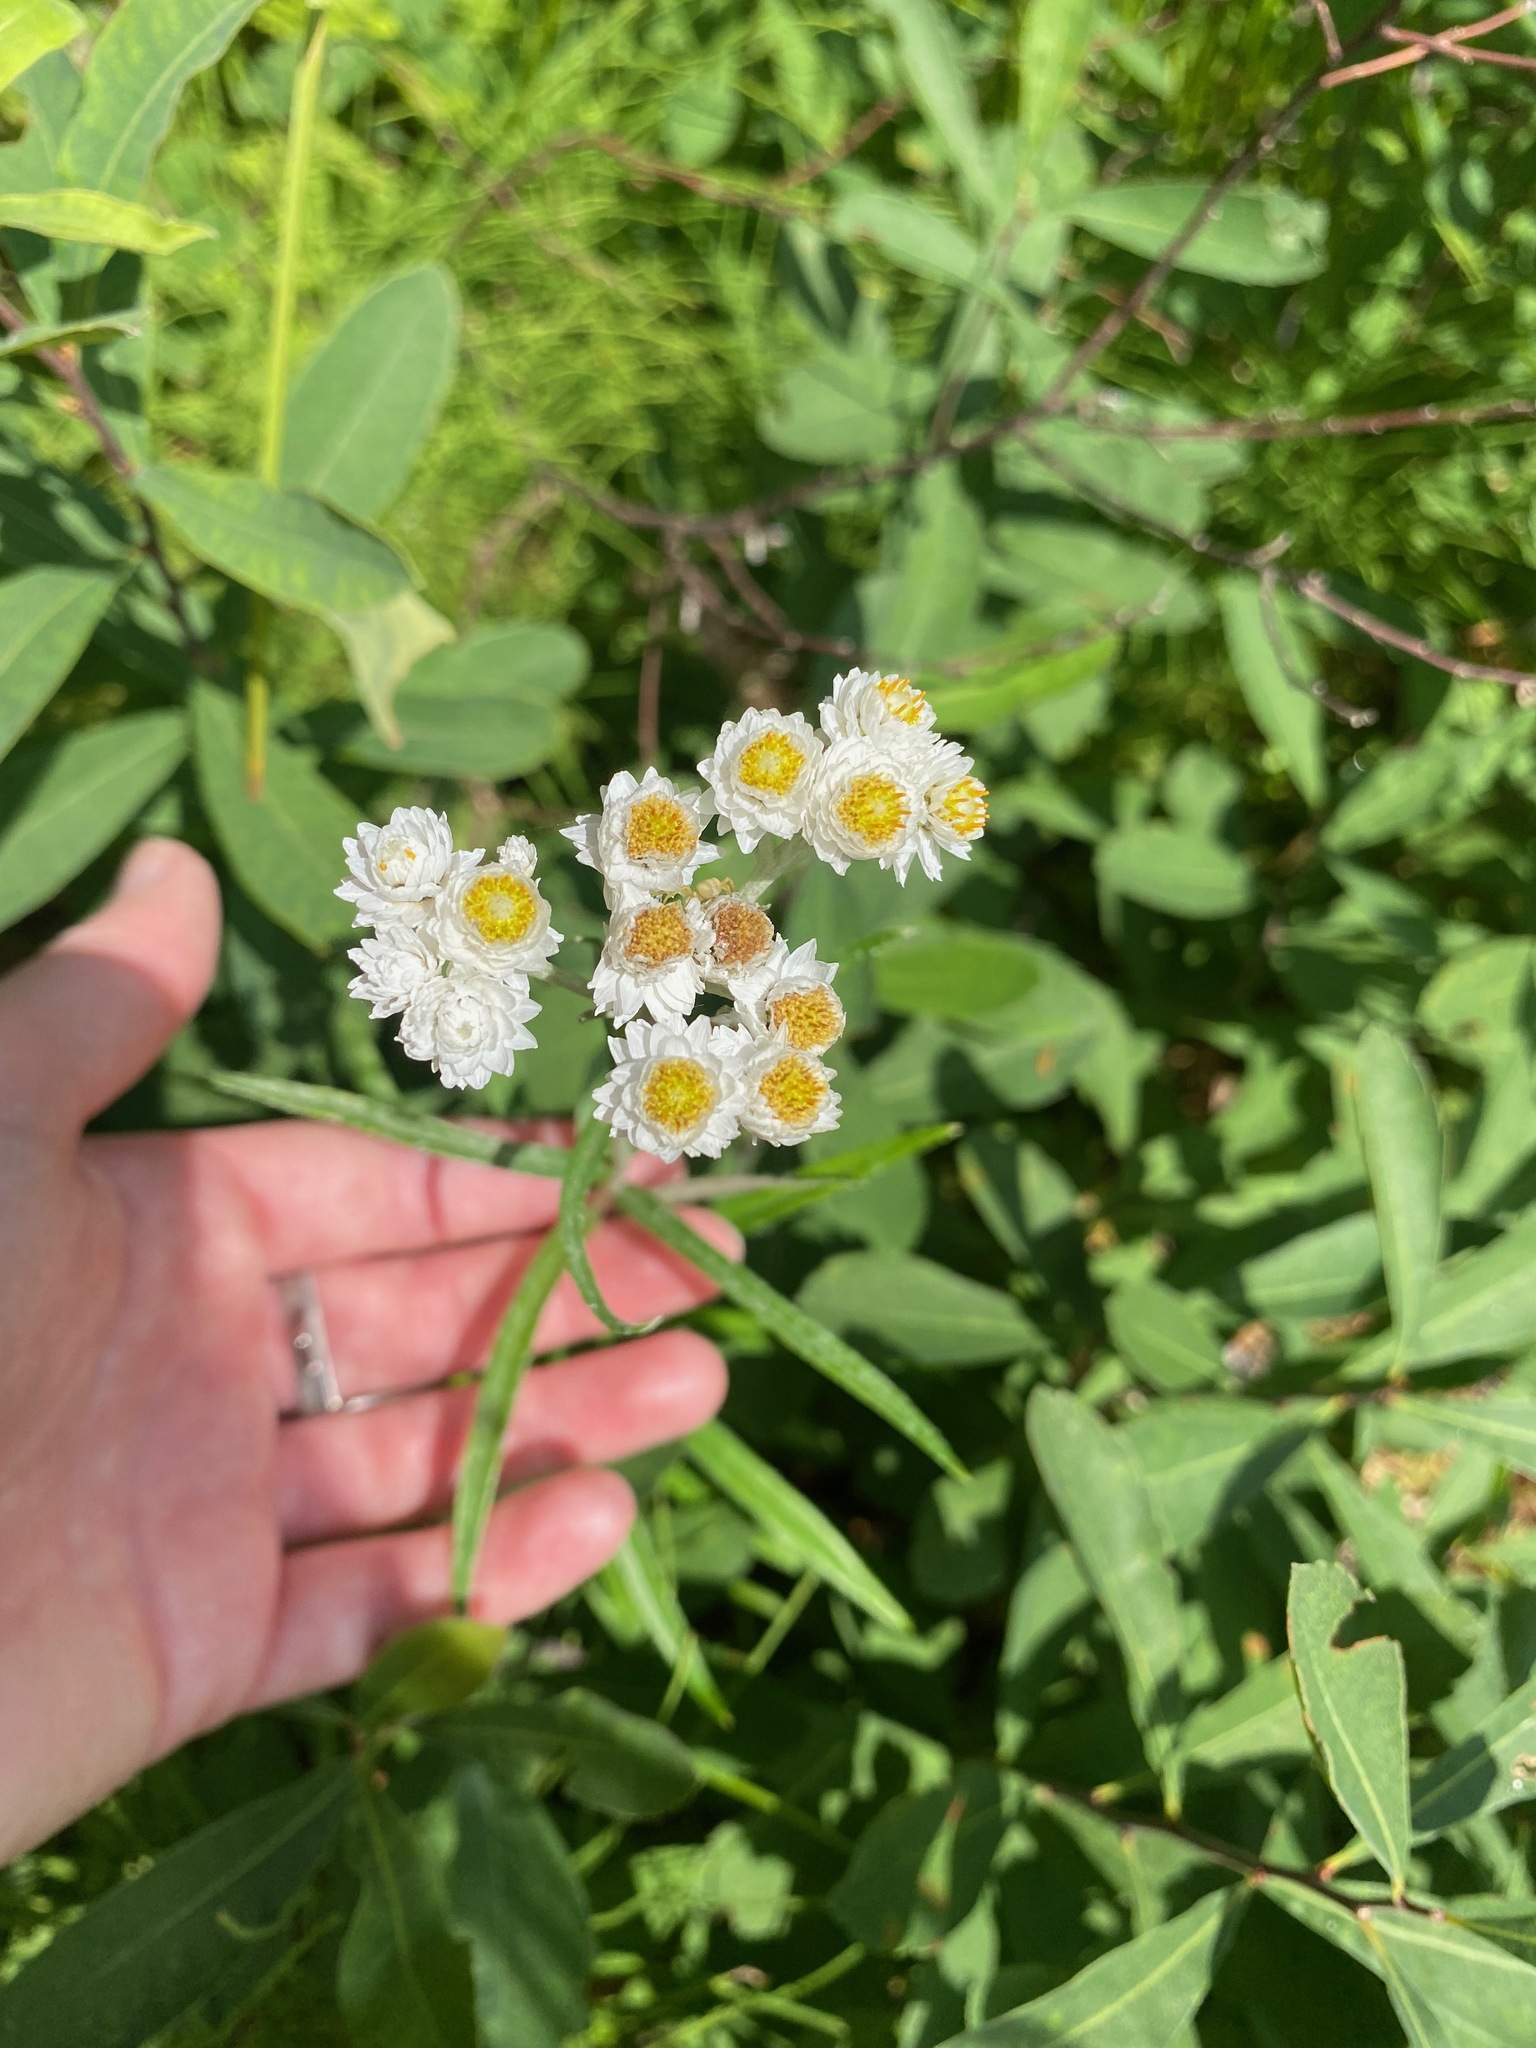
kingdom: Plantae
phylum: Tracheophyta
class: Magnoliopsida
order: Asterales
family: Asteraceae
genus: Anaphalis
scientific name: Anaphalis margaritacea
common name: Pearly everlasting
